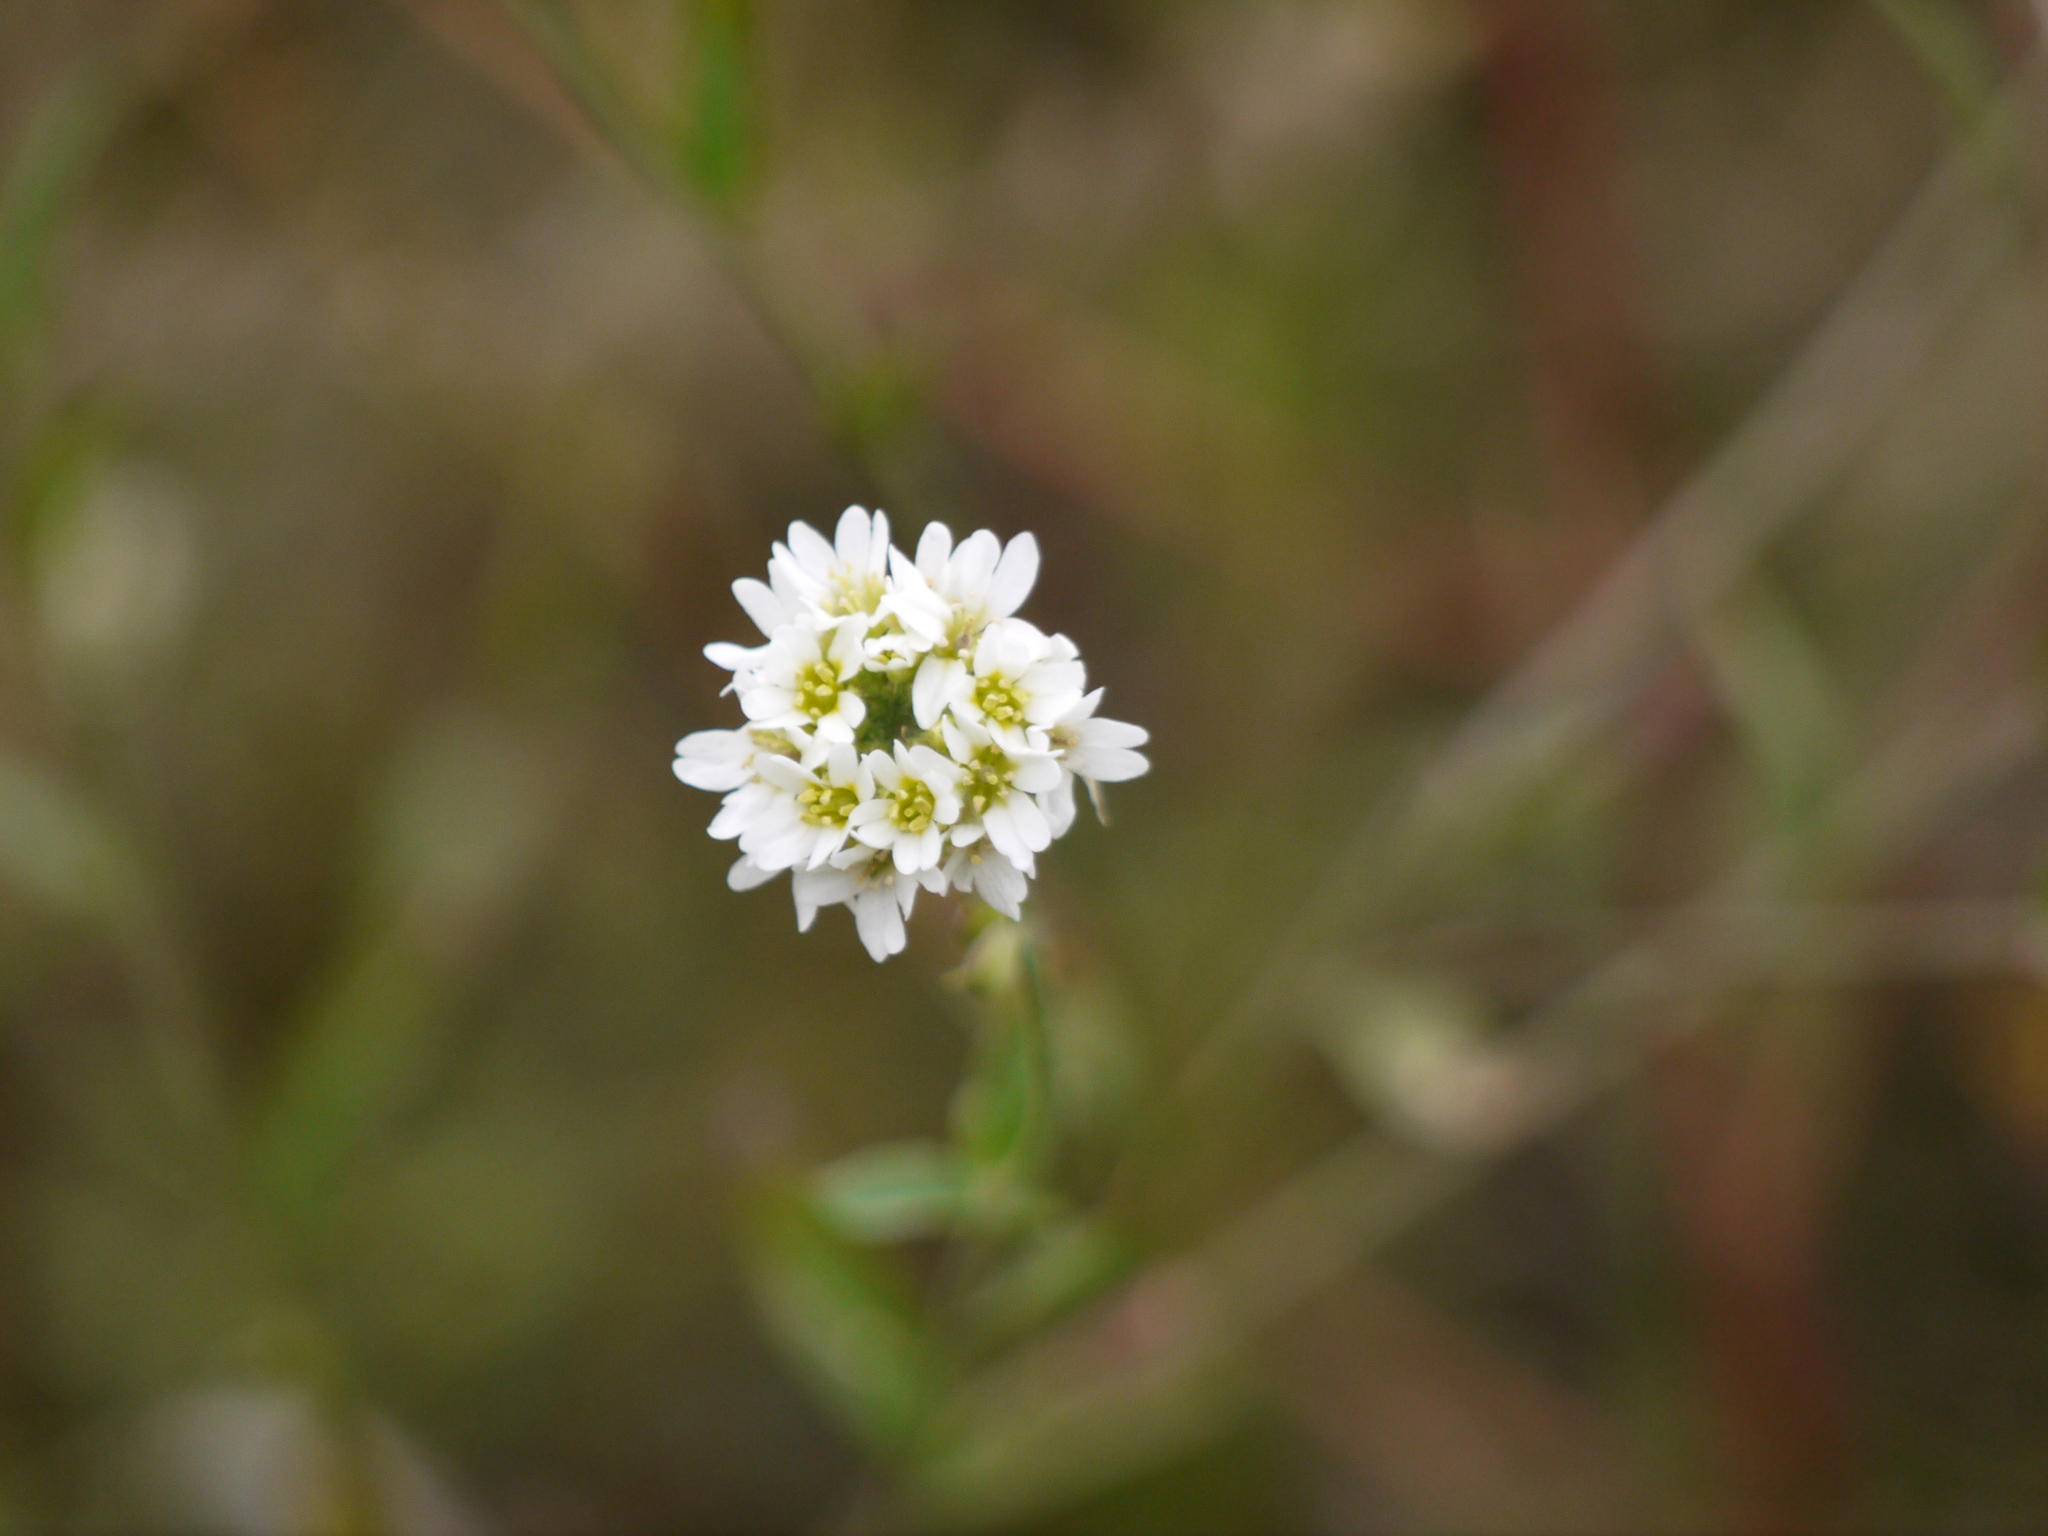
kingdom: Plantae
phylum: Tracheophyta
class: Magnoliopsida
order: Brassicales
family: Brassicaceae
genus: Berteroa
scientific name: Berteroa incana
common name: Hoary alison
